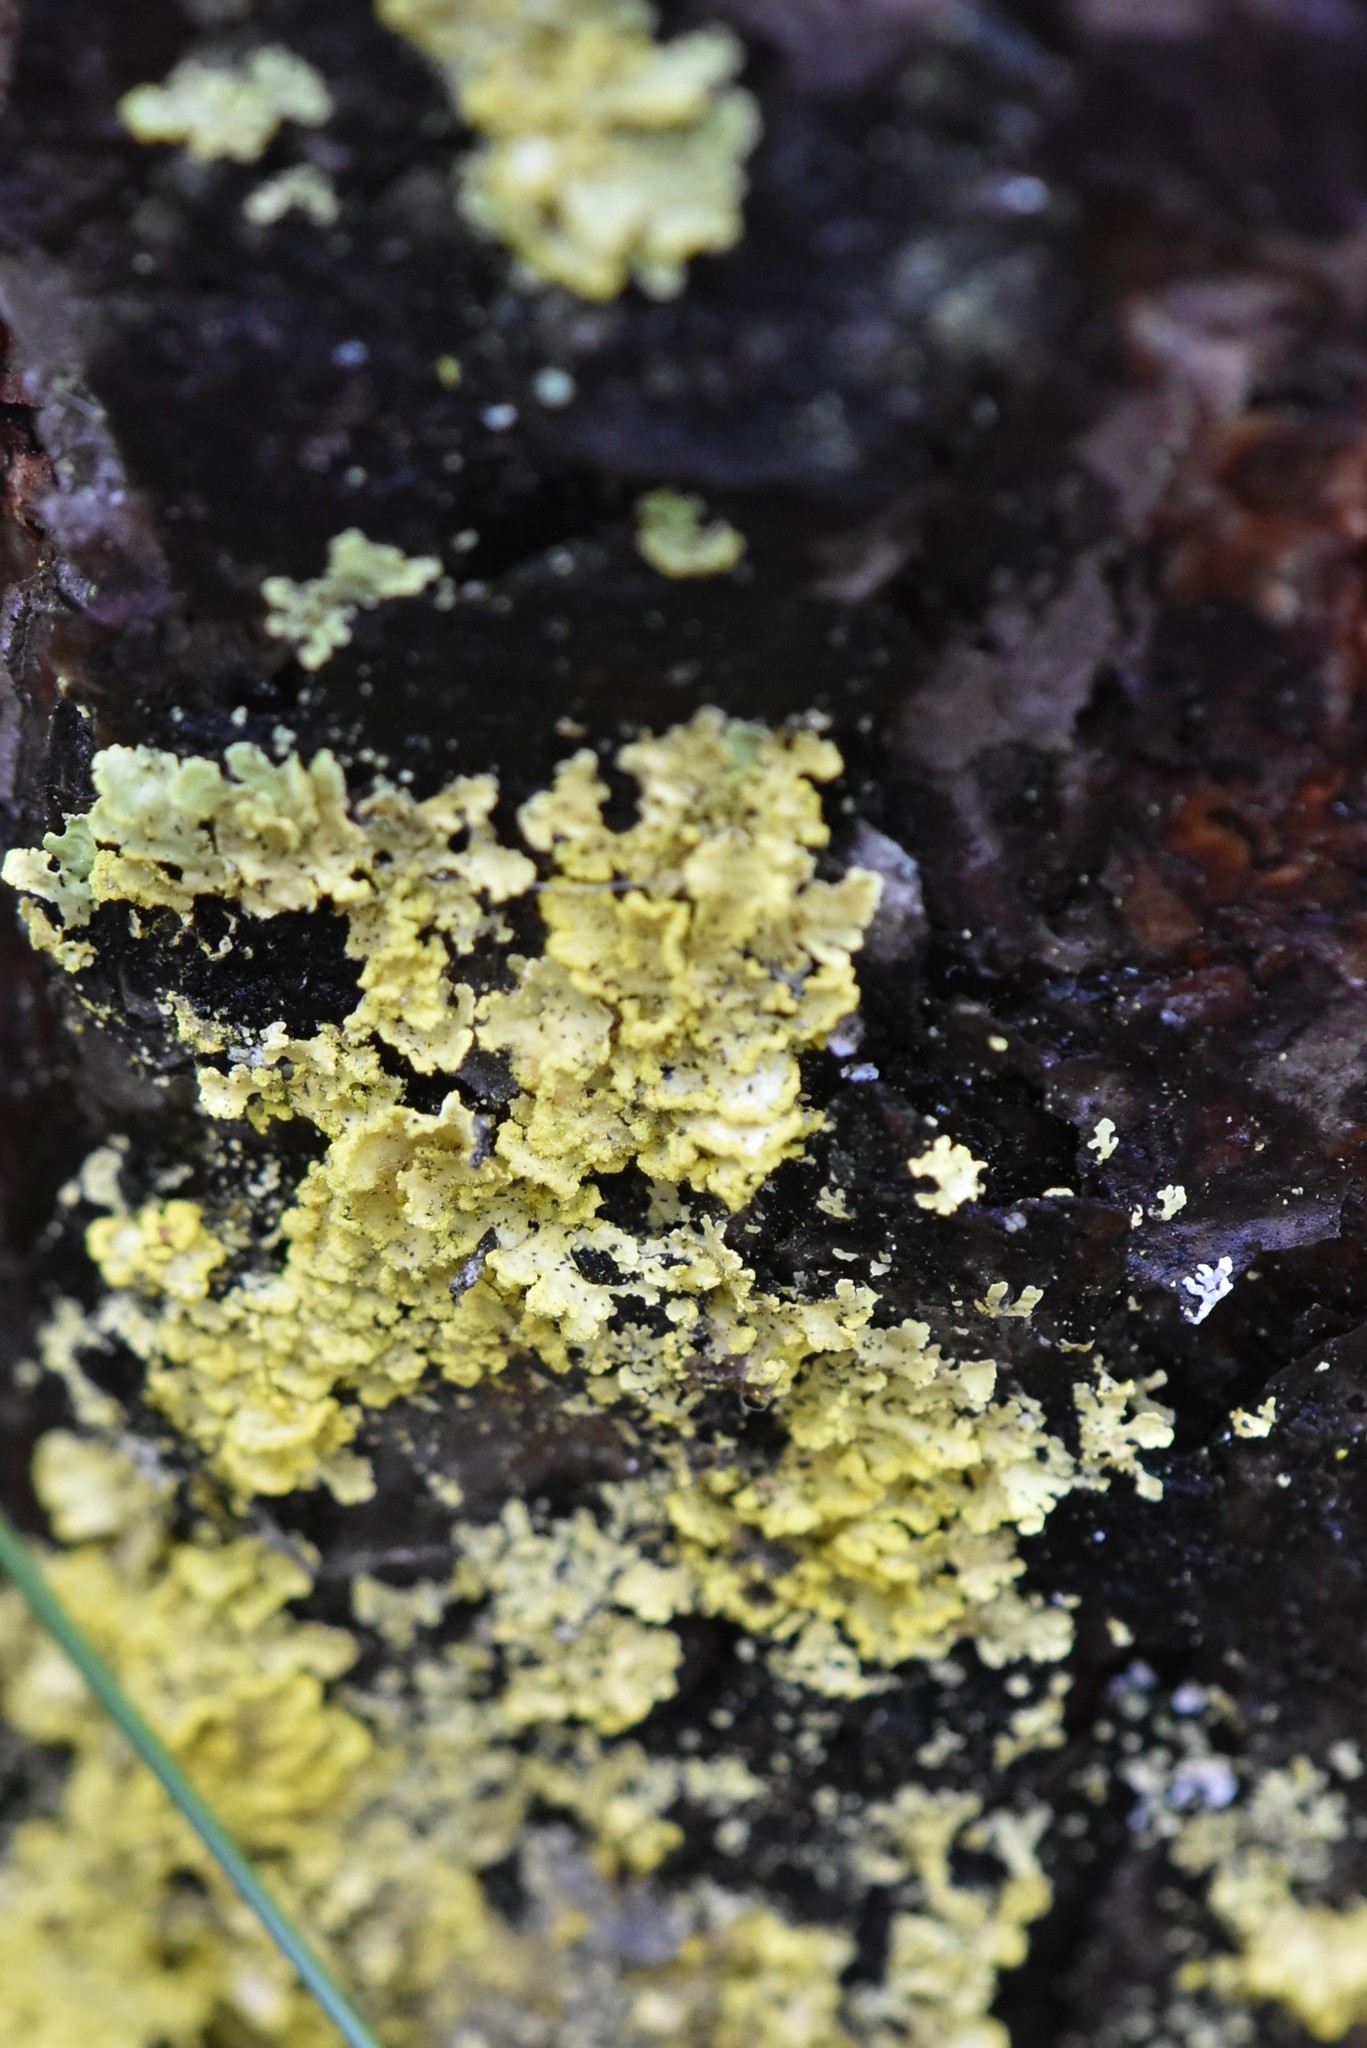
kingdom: Fungi
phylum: Ascomycota
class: Lecanoromycetes
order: Lecanorales
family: Parmeliaceae
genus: Vulpicida
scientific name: Vulpicida pinastri
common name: Powdered sunshine lichen
